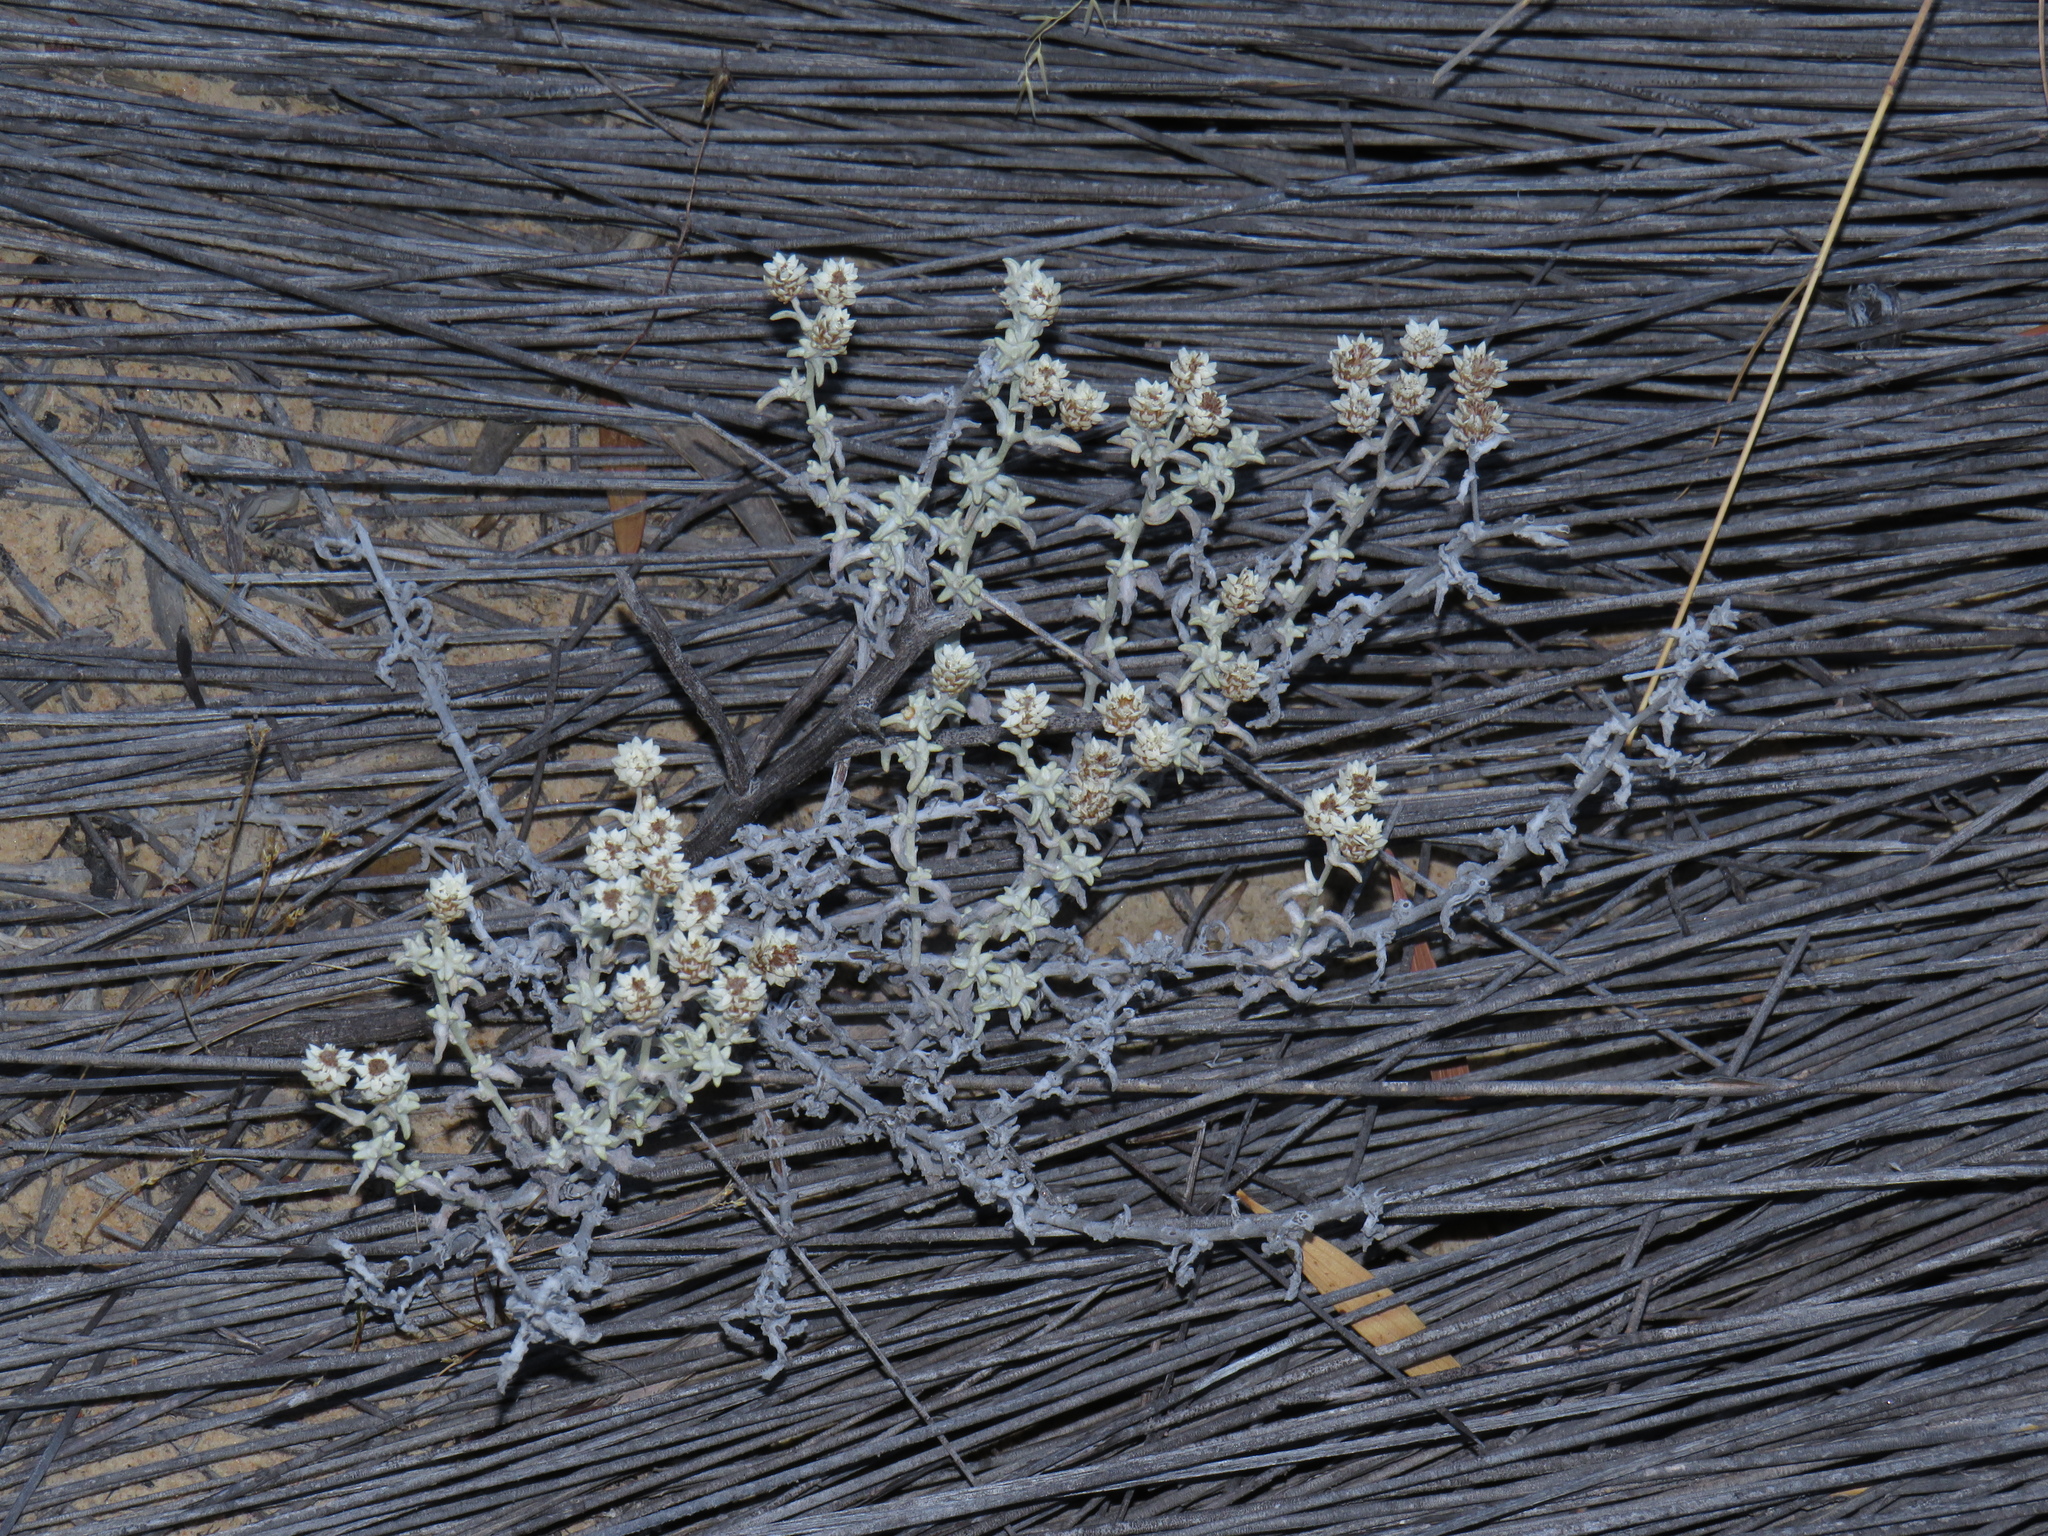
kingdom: Plantae
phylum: Tracheophyta
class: Magnoliopsida
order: Asterales
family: Asteraceae
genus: Helichrysum
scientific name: Helichrysum incarnatum
